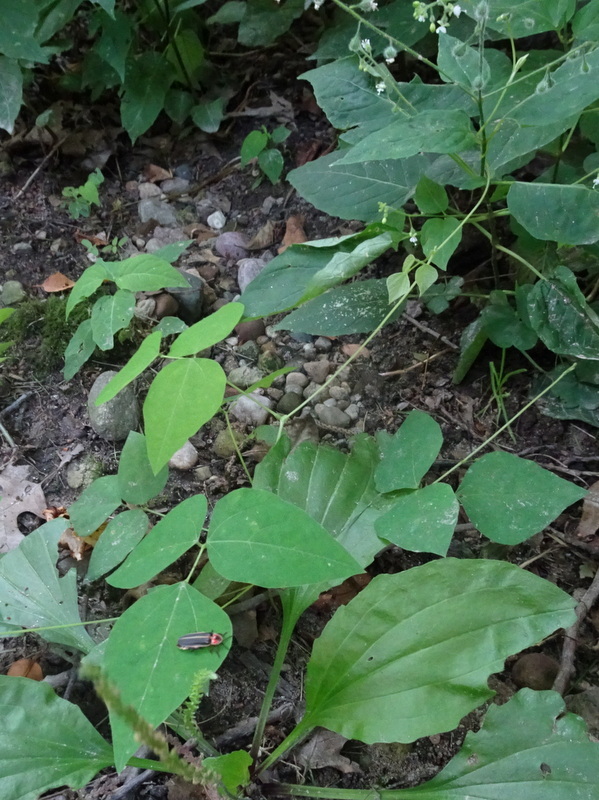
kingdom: Plantae
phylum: Tracheophyta
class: Magnoliopsida
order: Fabales
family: Fabaceae
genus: Amphicarpaea
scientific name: Amphicarpaea bracteata
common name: American hog peanut
